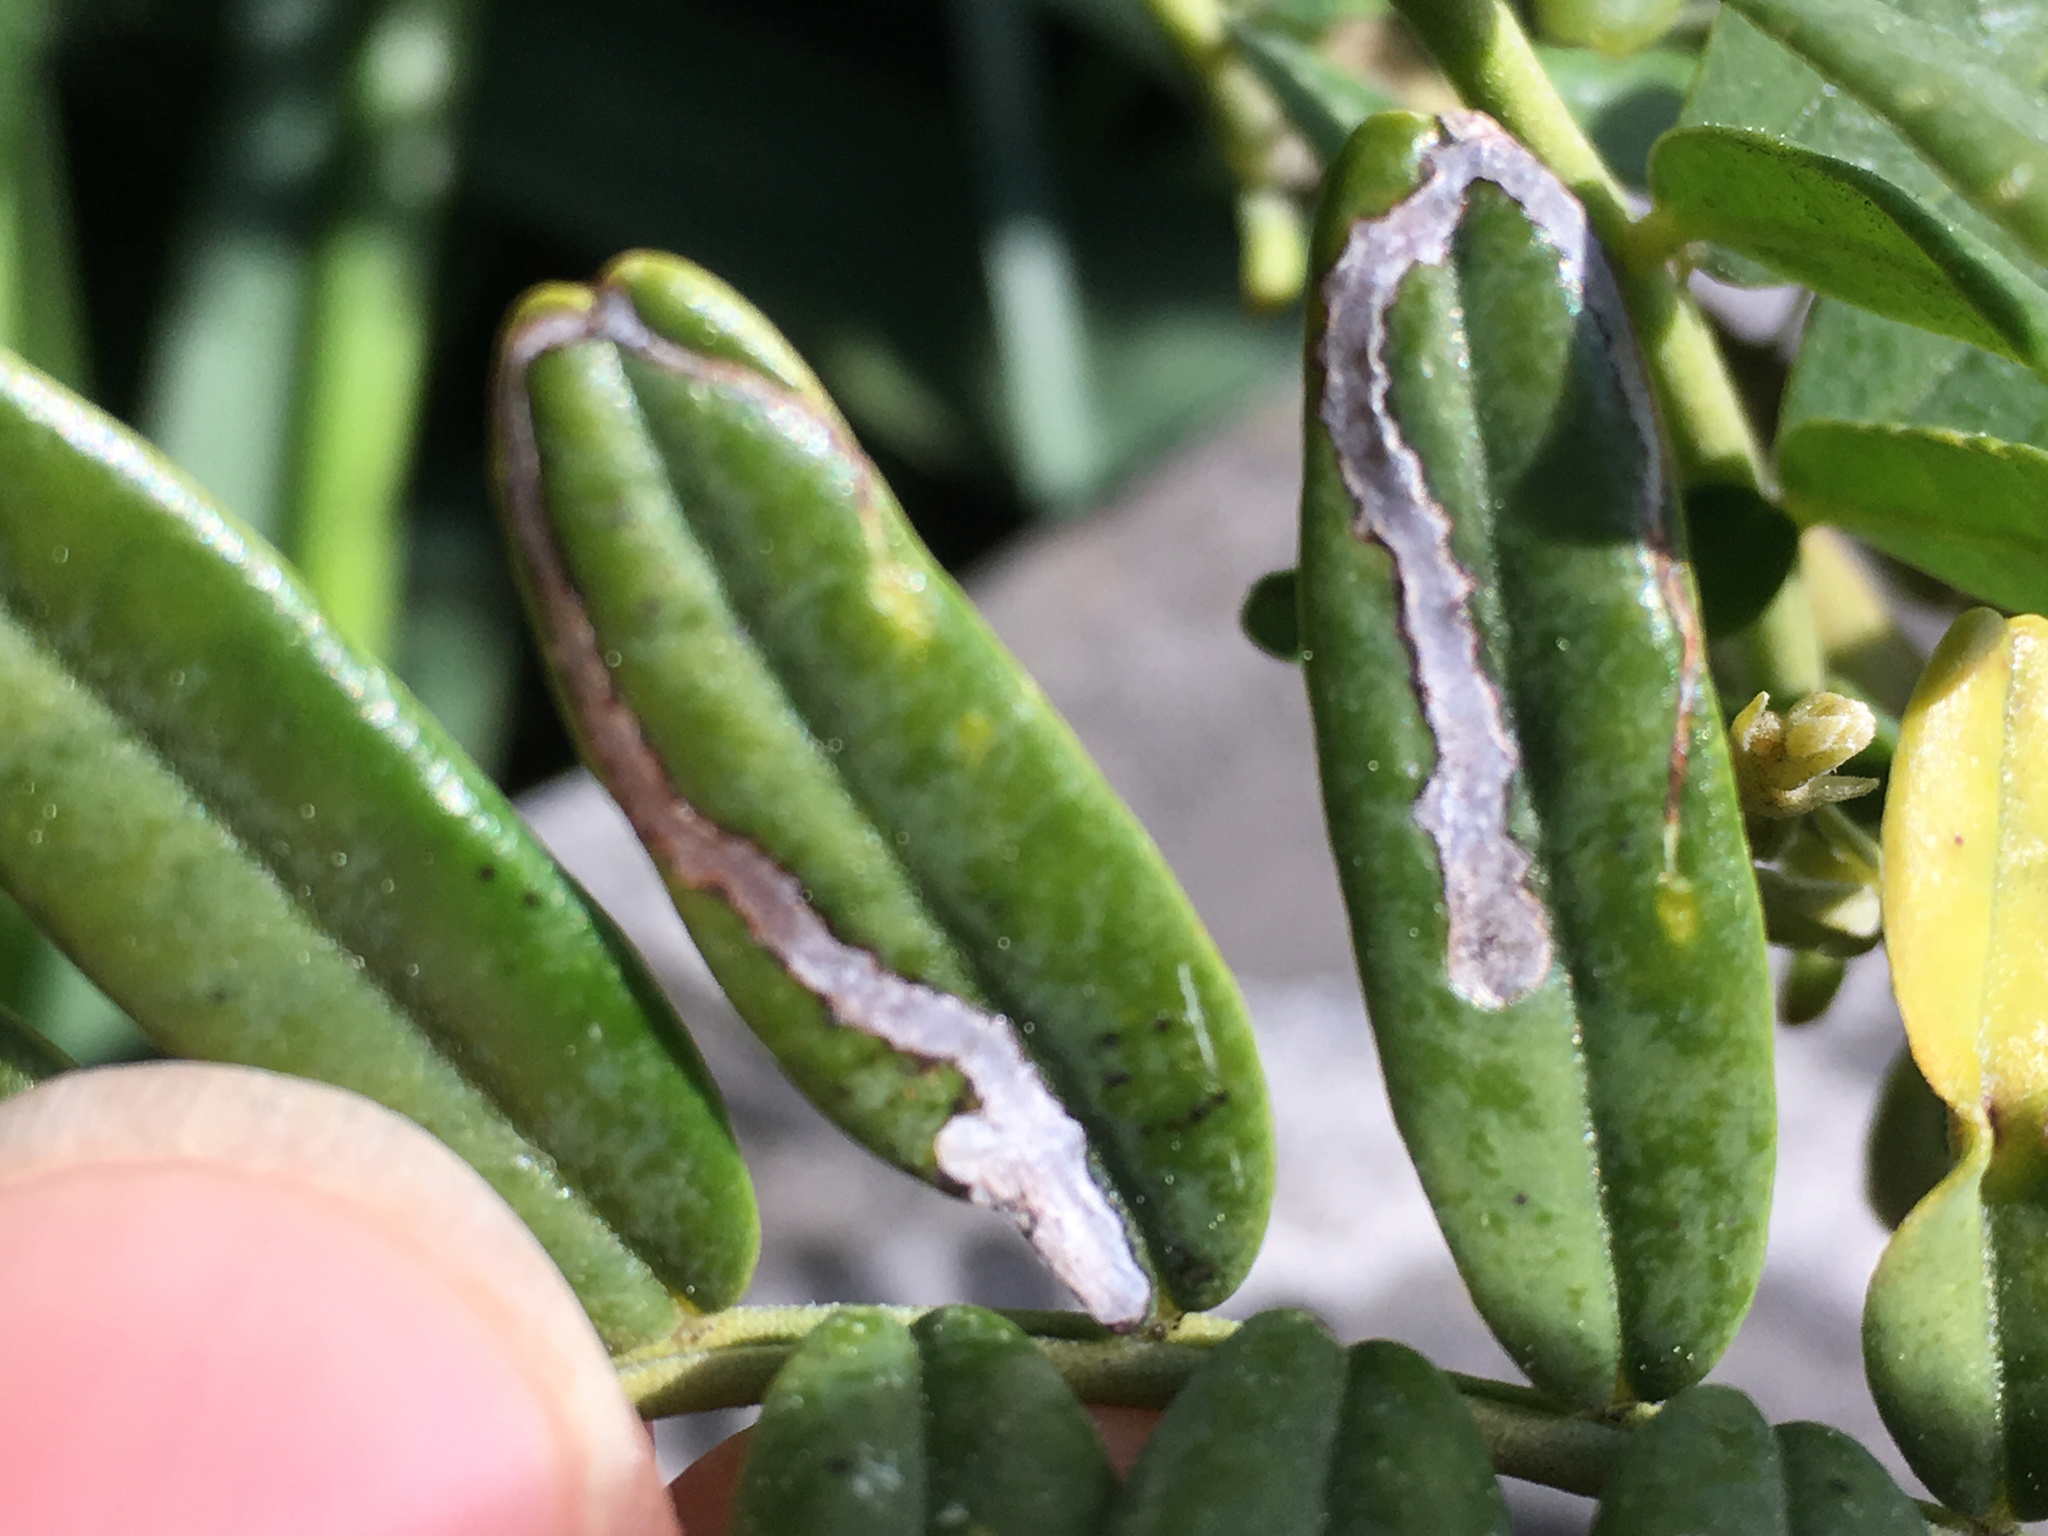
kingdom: Animalia
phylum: Arthropoda
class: Insecta
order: Diptera
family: Agromyzidae
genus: Liriomyza
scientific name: Liriomyza clianthi
